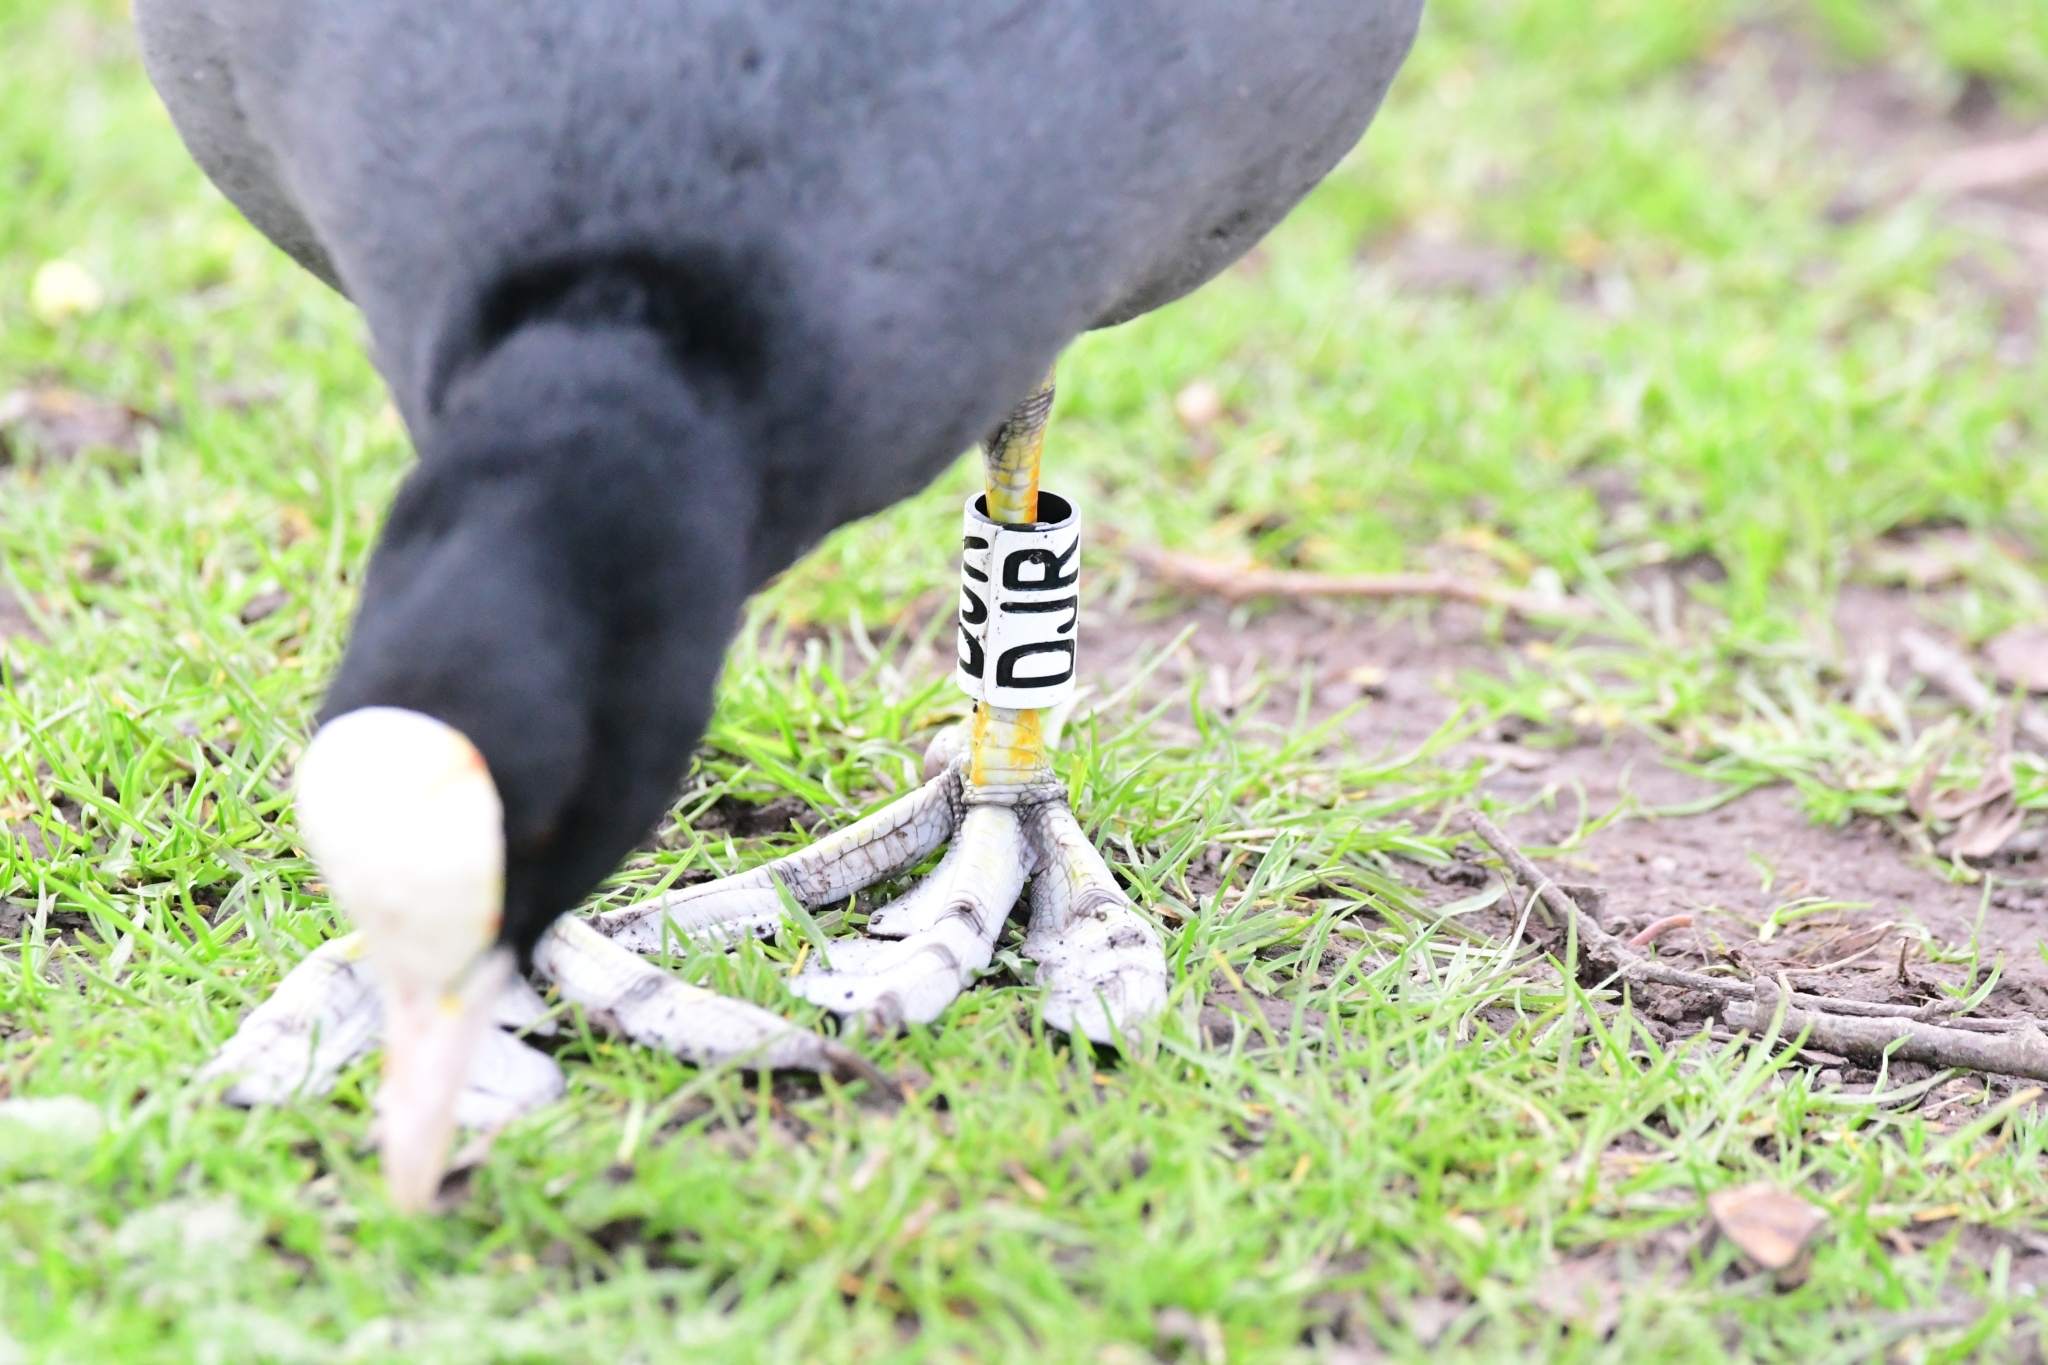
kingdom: Animalia
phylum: Chordata
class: Aves
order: Gruiformes
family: Rallidae
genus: Fulica
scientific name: Fulica atra
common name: Eurasian coot
